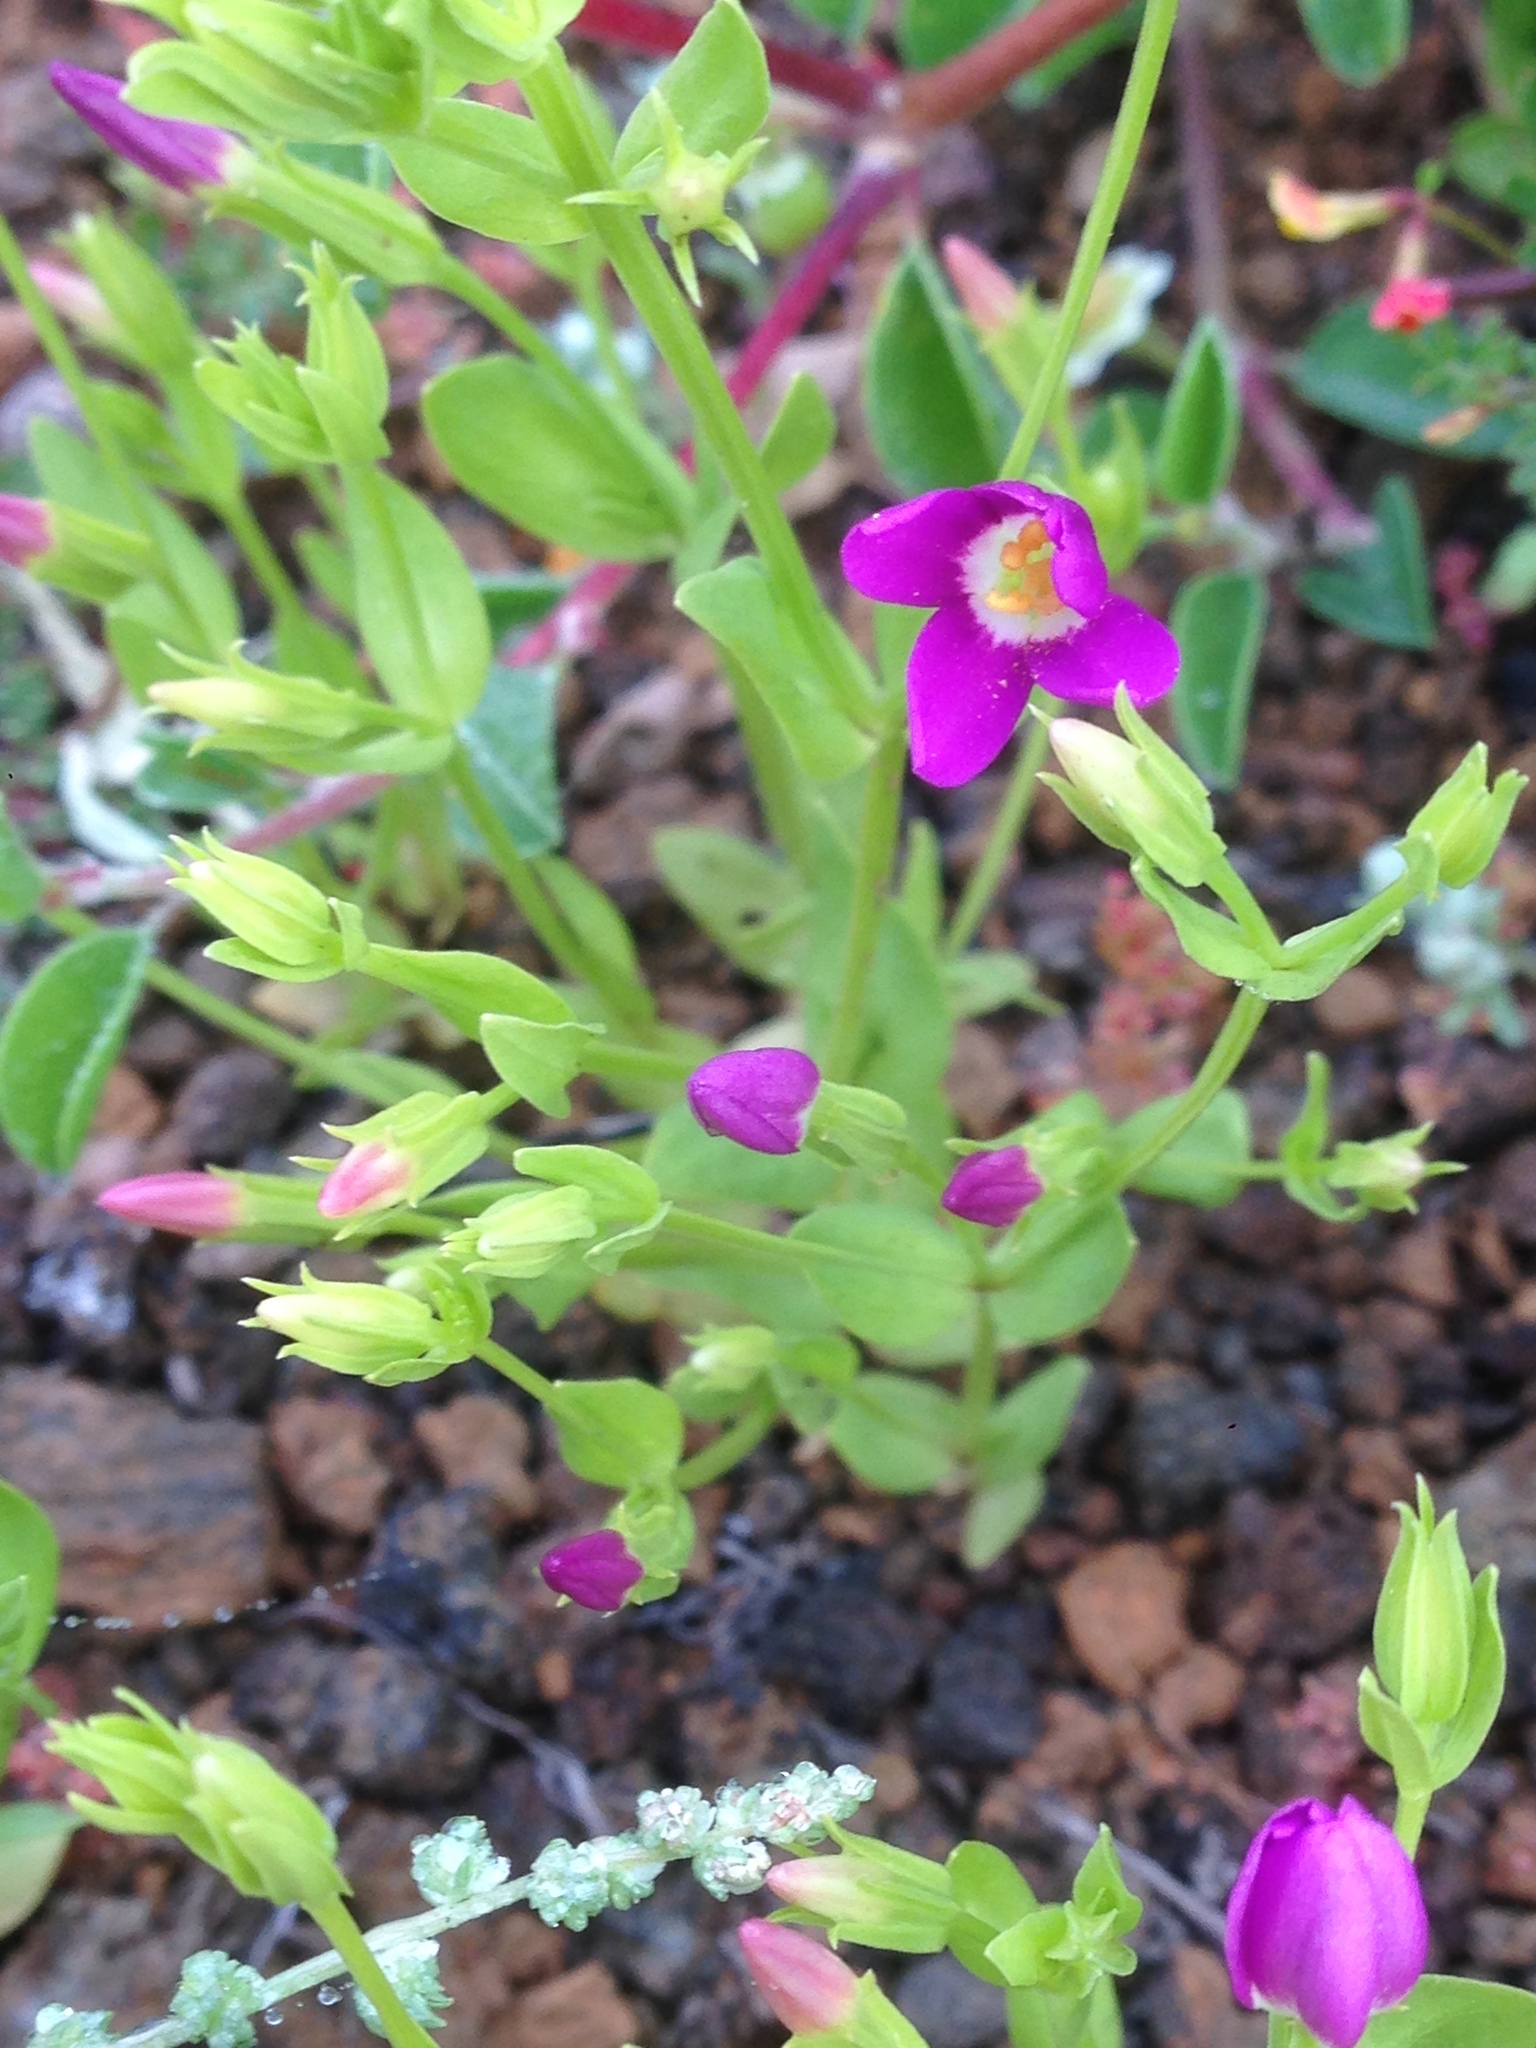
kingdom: Plantae
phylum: Tracheophyta
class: Magnoliopsida
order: Gentianales
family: Gentianaceae
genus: Zeltnera
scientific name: Zeltnera venusta
